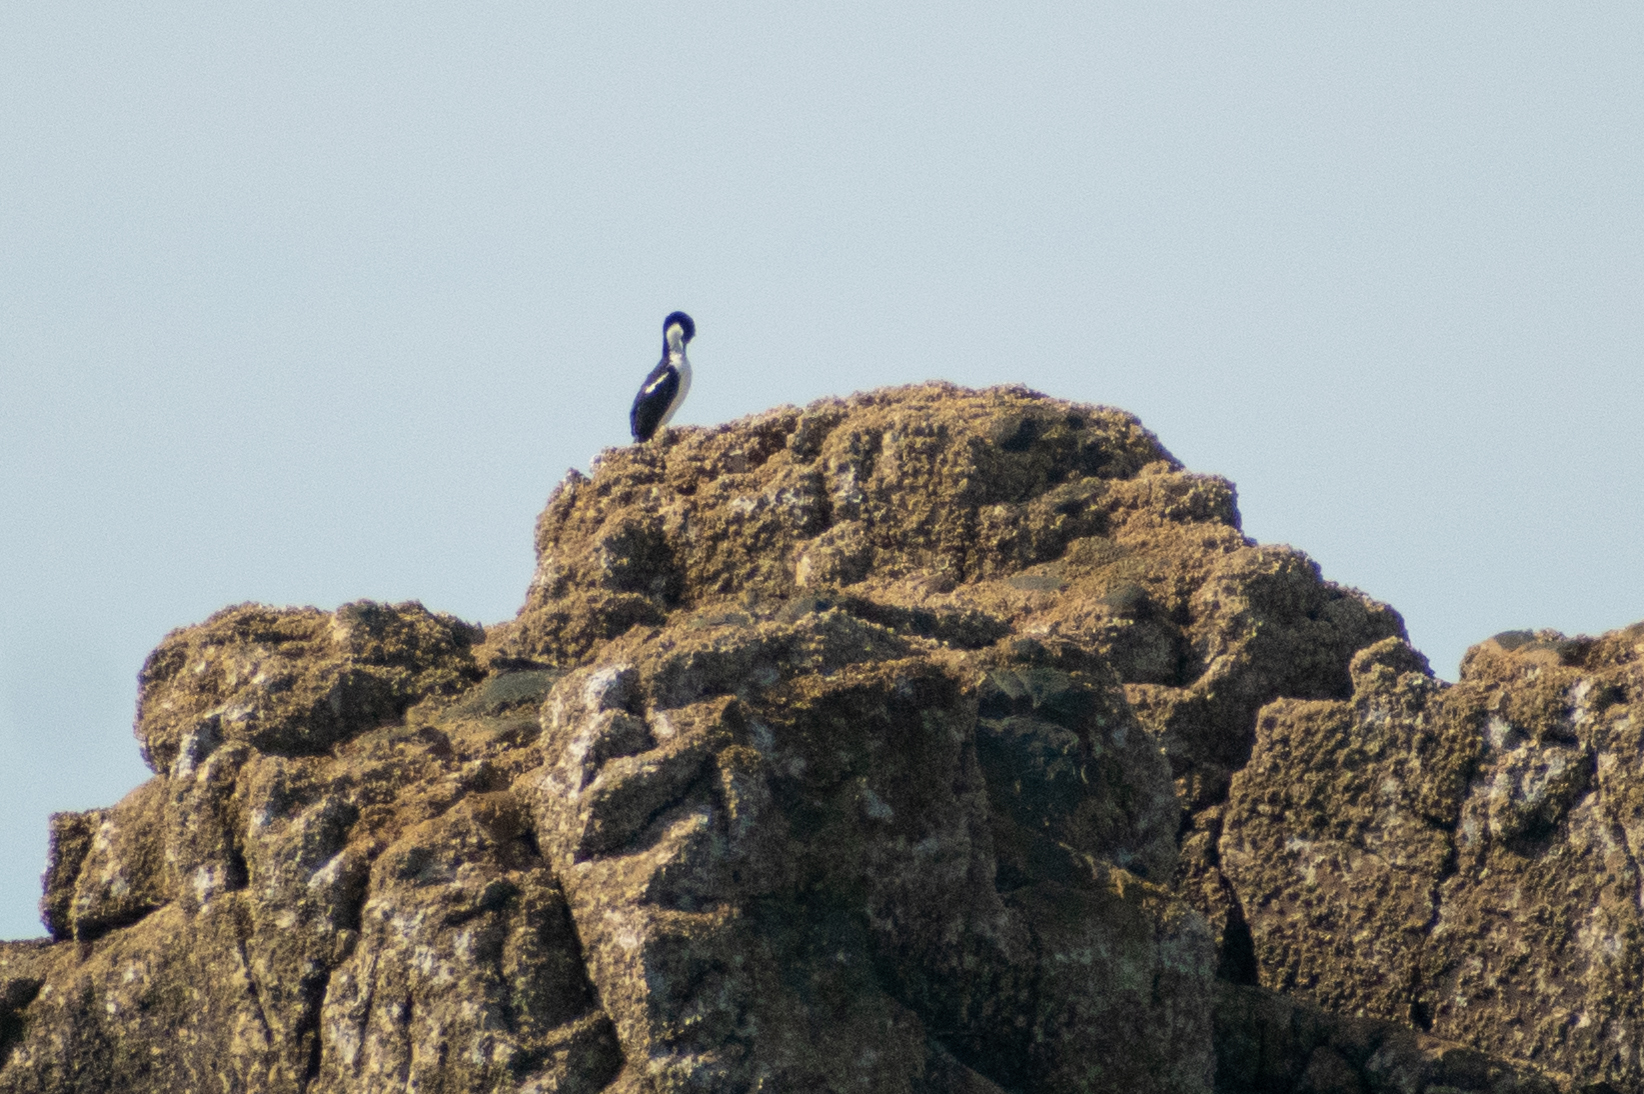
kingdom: Animalia
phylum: Chordata
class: Aves
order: Suliformes
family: Phalacrocoracidae
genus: Leucocarbo
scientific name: Leucocarbo atriceps
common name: Imperial shag
